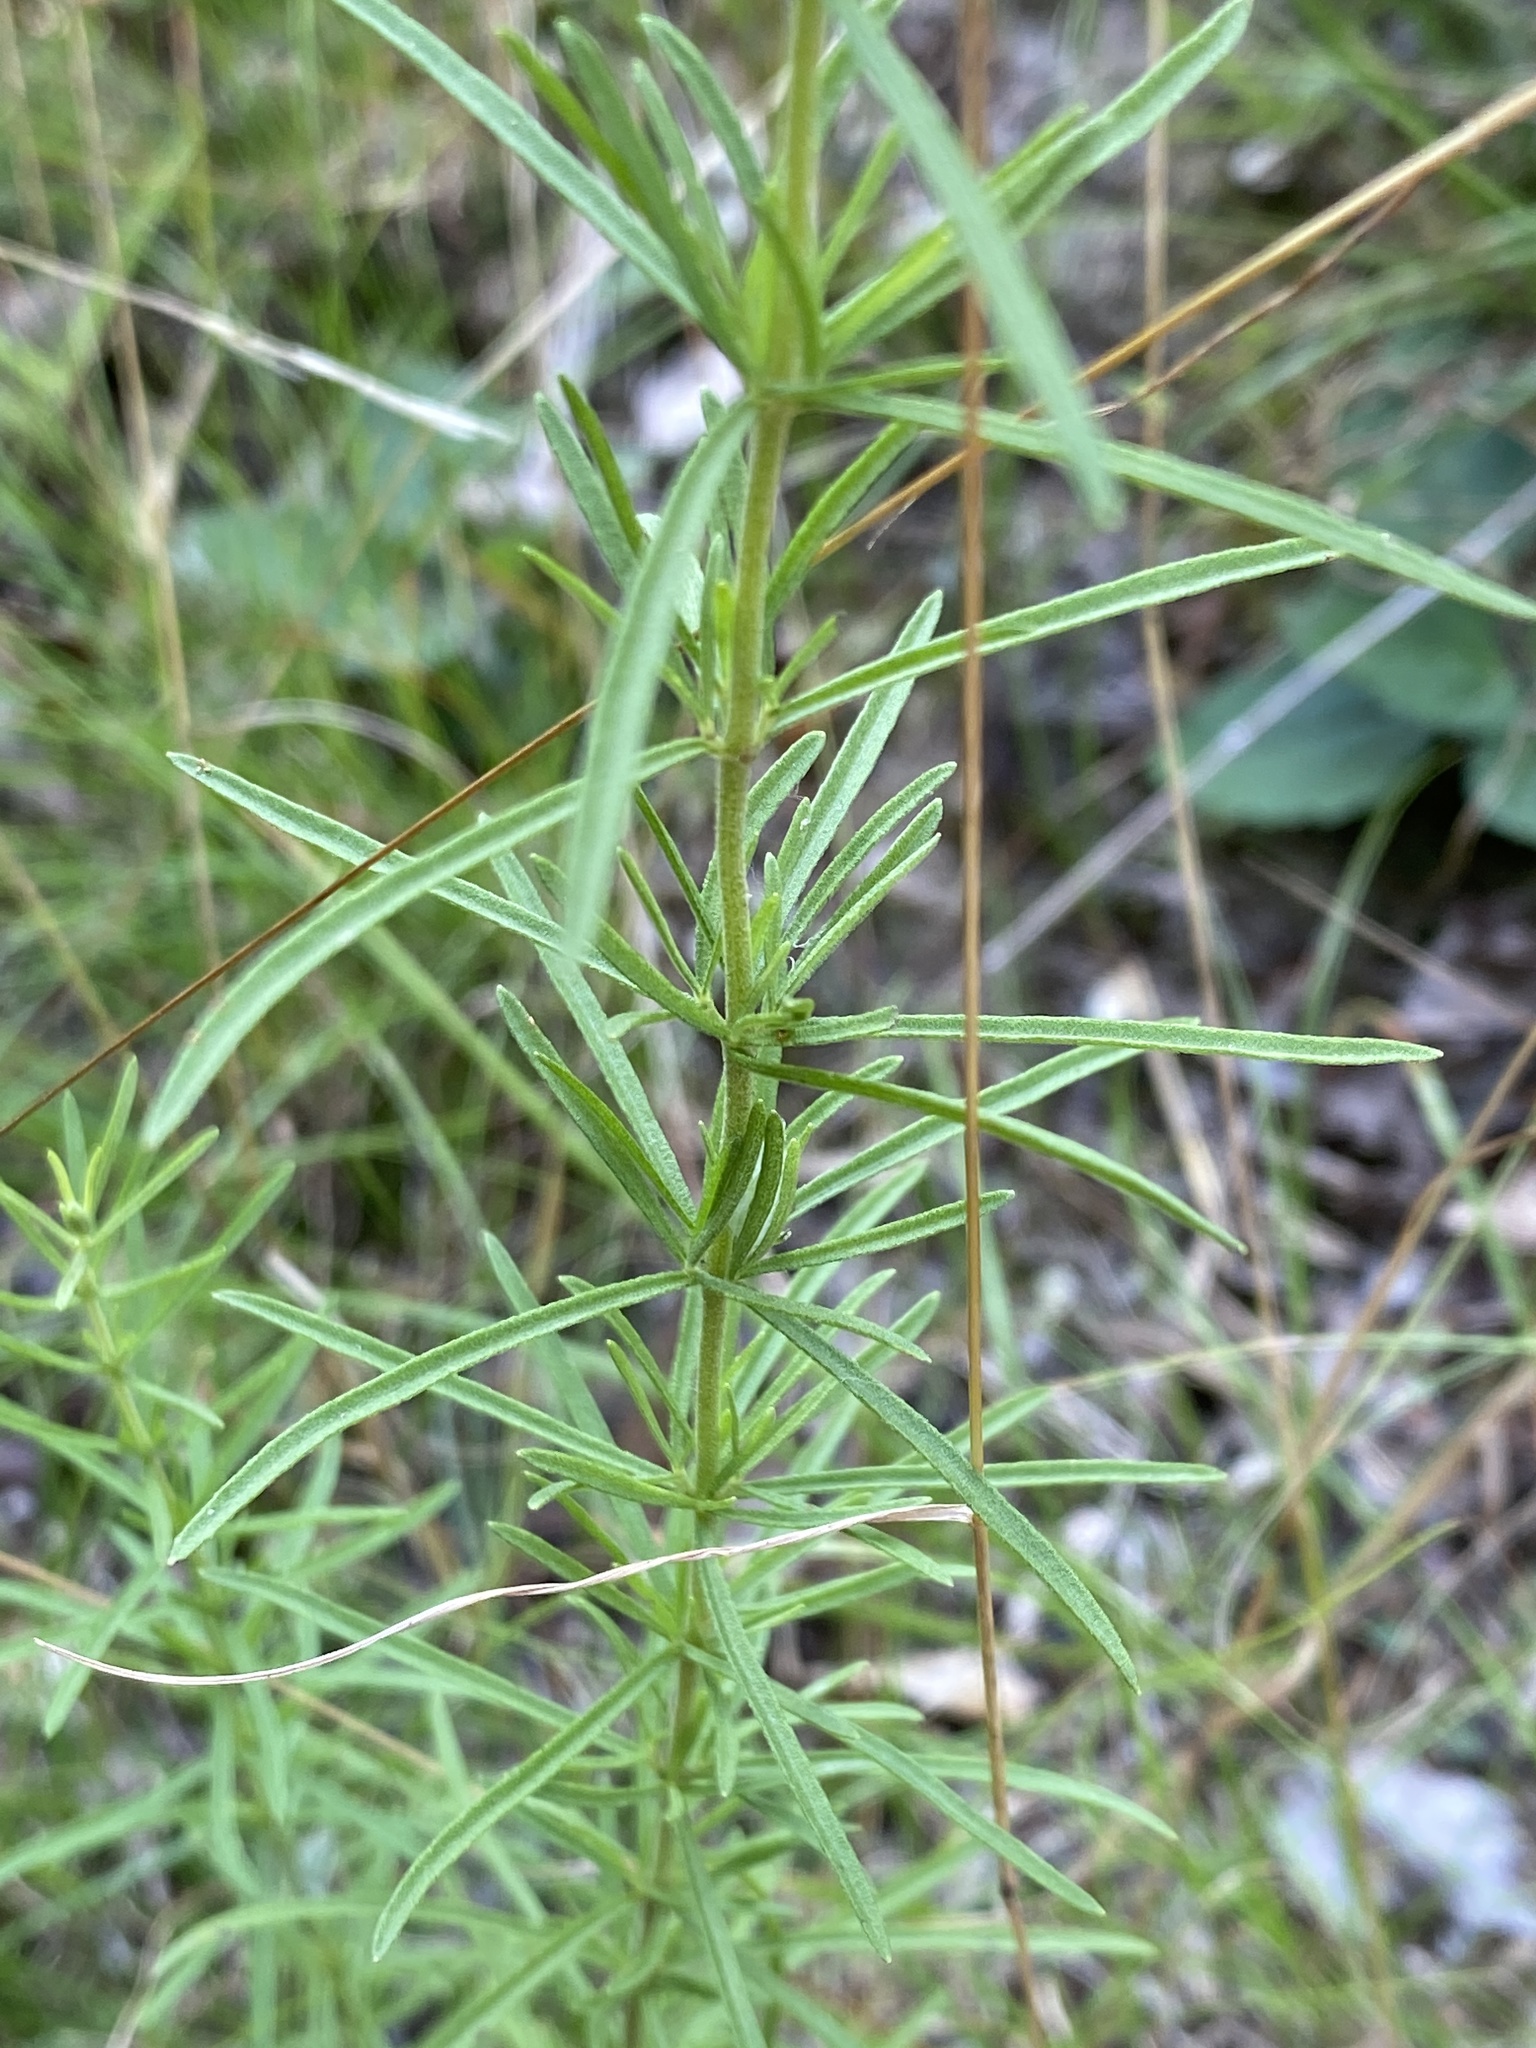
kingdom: Plantae
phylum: Tracheophyta
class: Magnoliopsida
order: Asterales
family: Asteraceae
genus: Eupatorium
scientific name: Eupatorium hyssopifolium
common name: Hyssop-leaf thoroughwort
